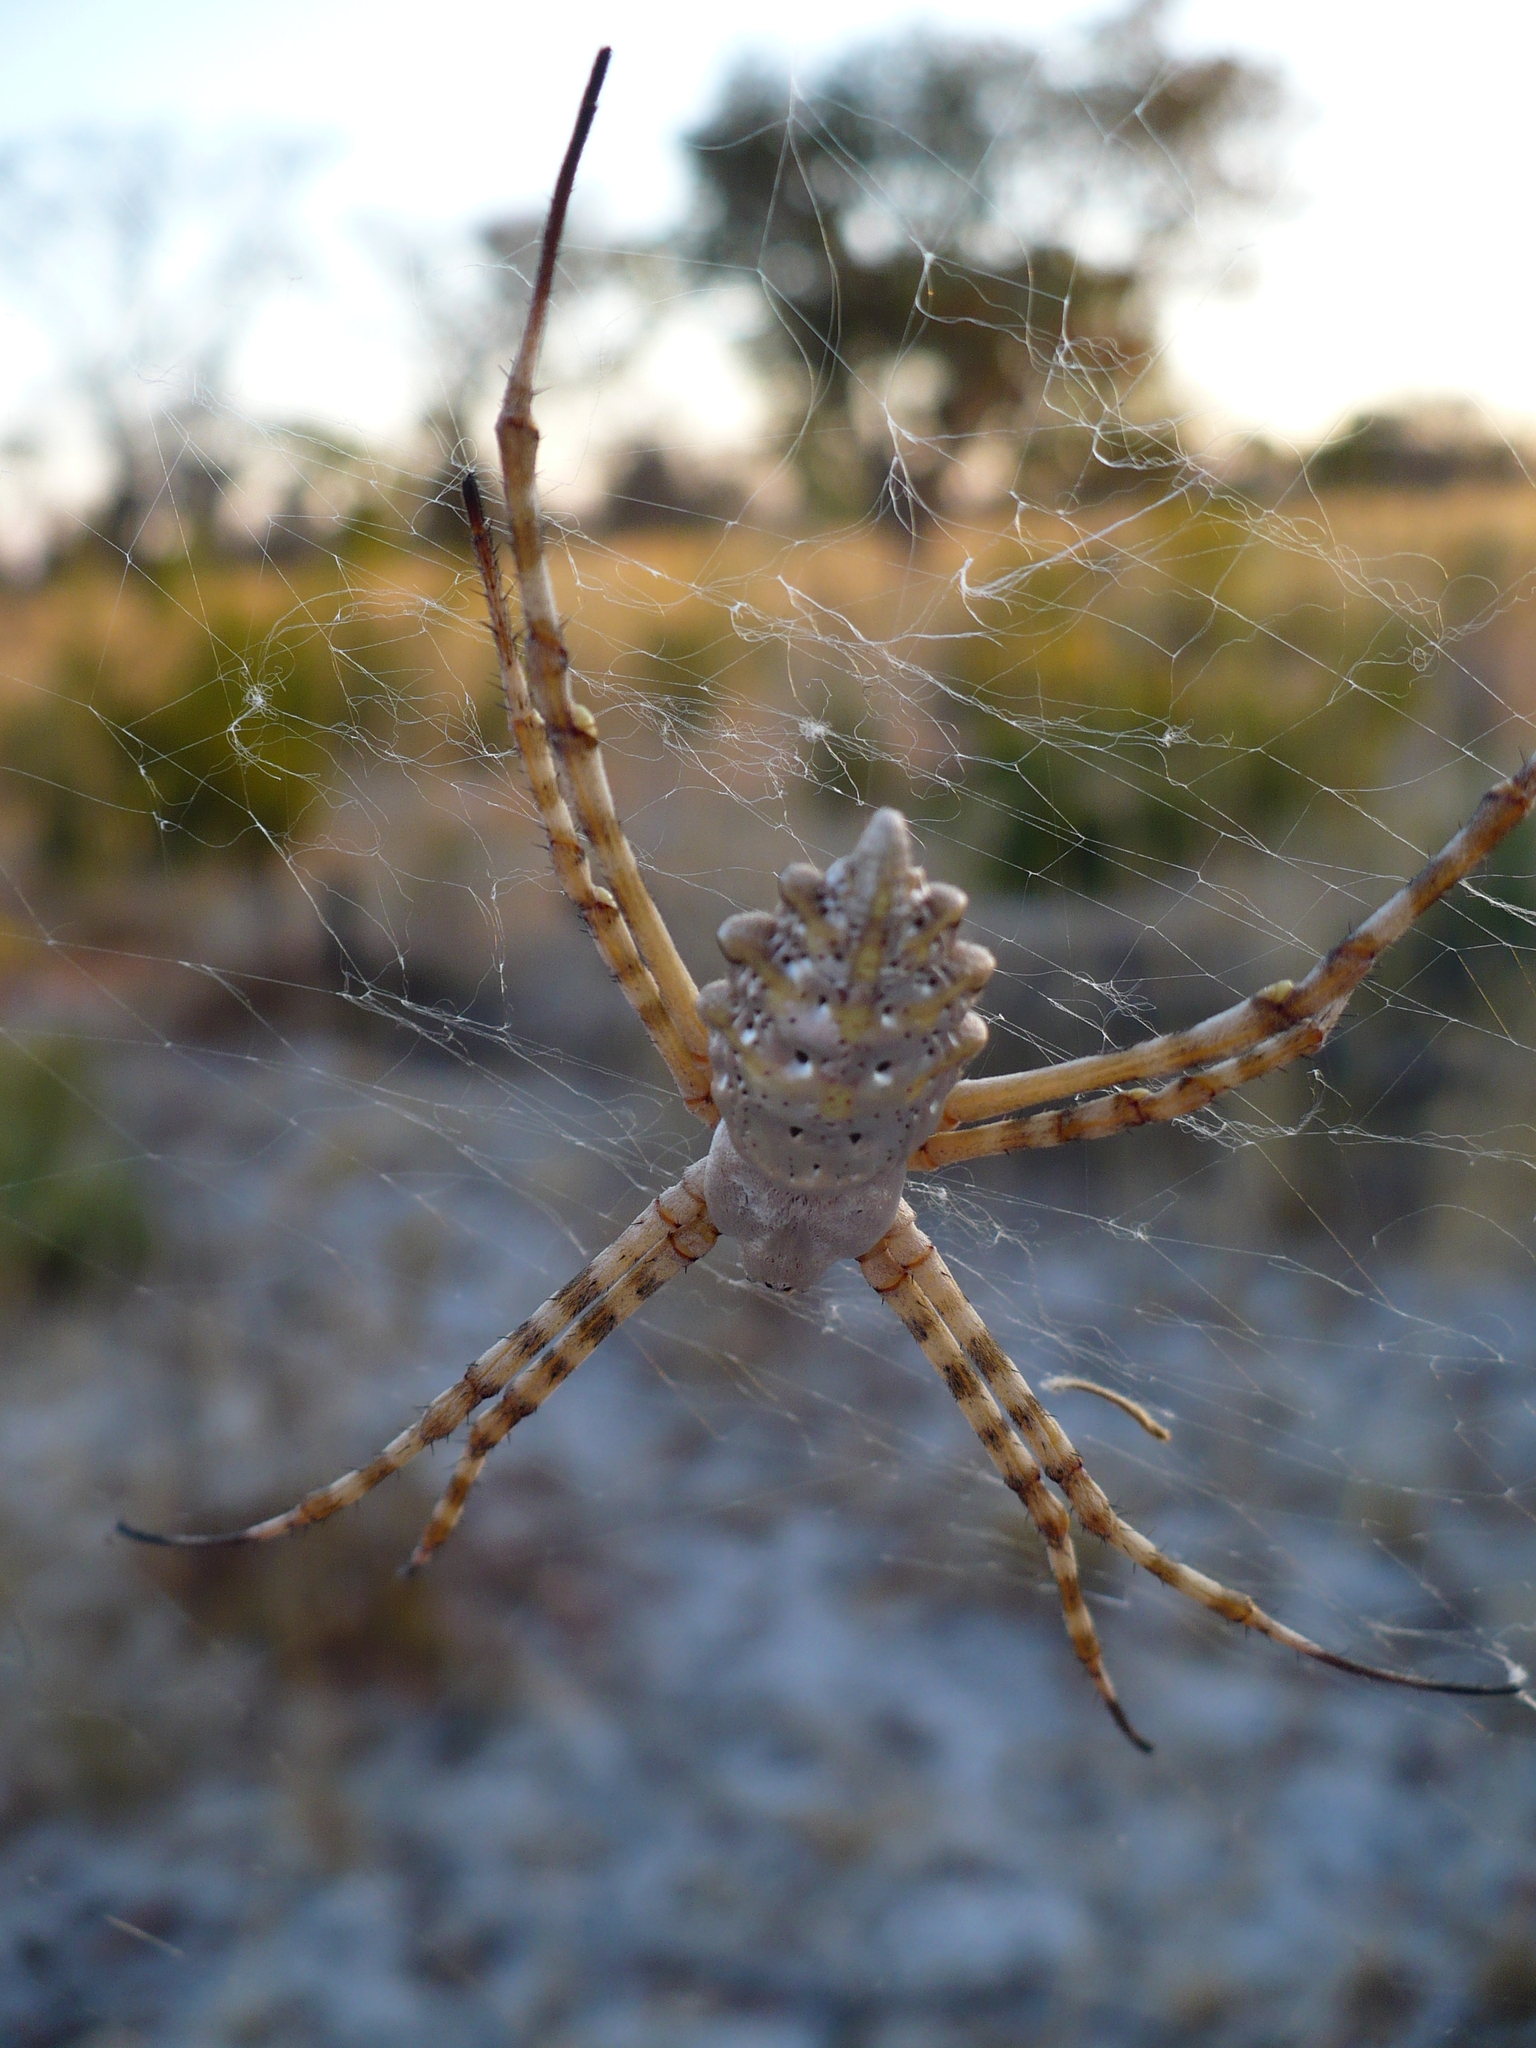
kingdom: Animalia
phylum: Arthropoda
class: Arachnida
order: Araneae
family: Araneidae
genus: Argiope
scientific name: Argiope lobata
